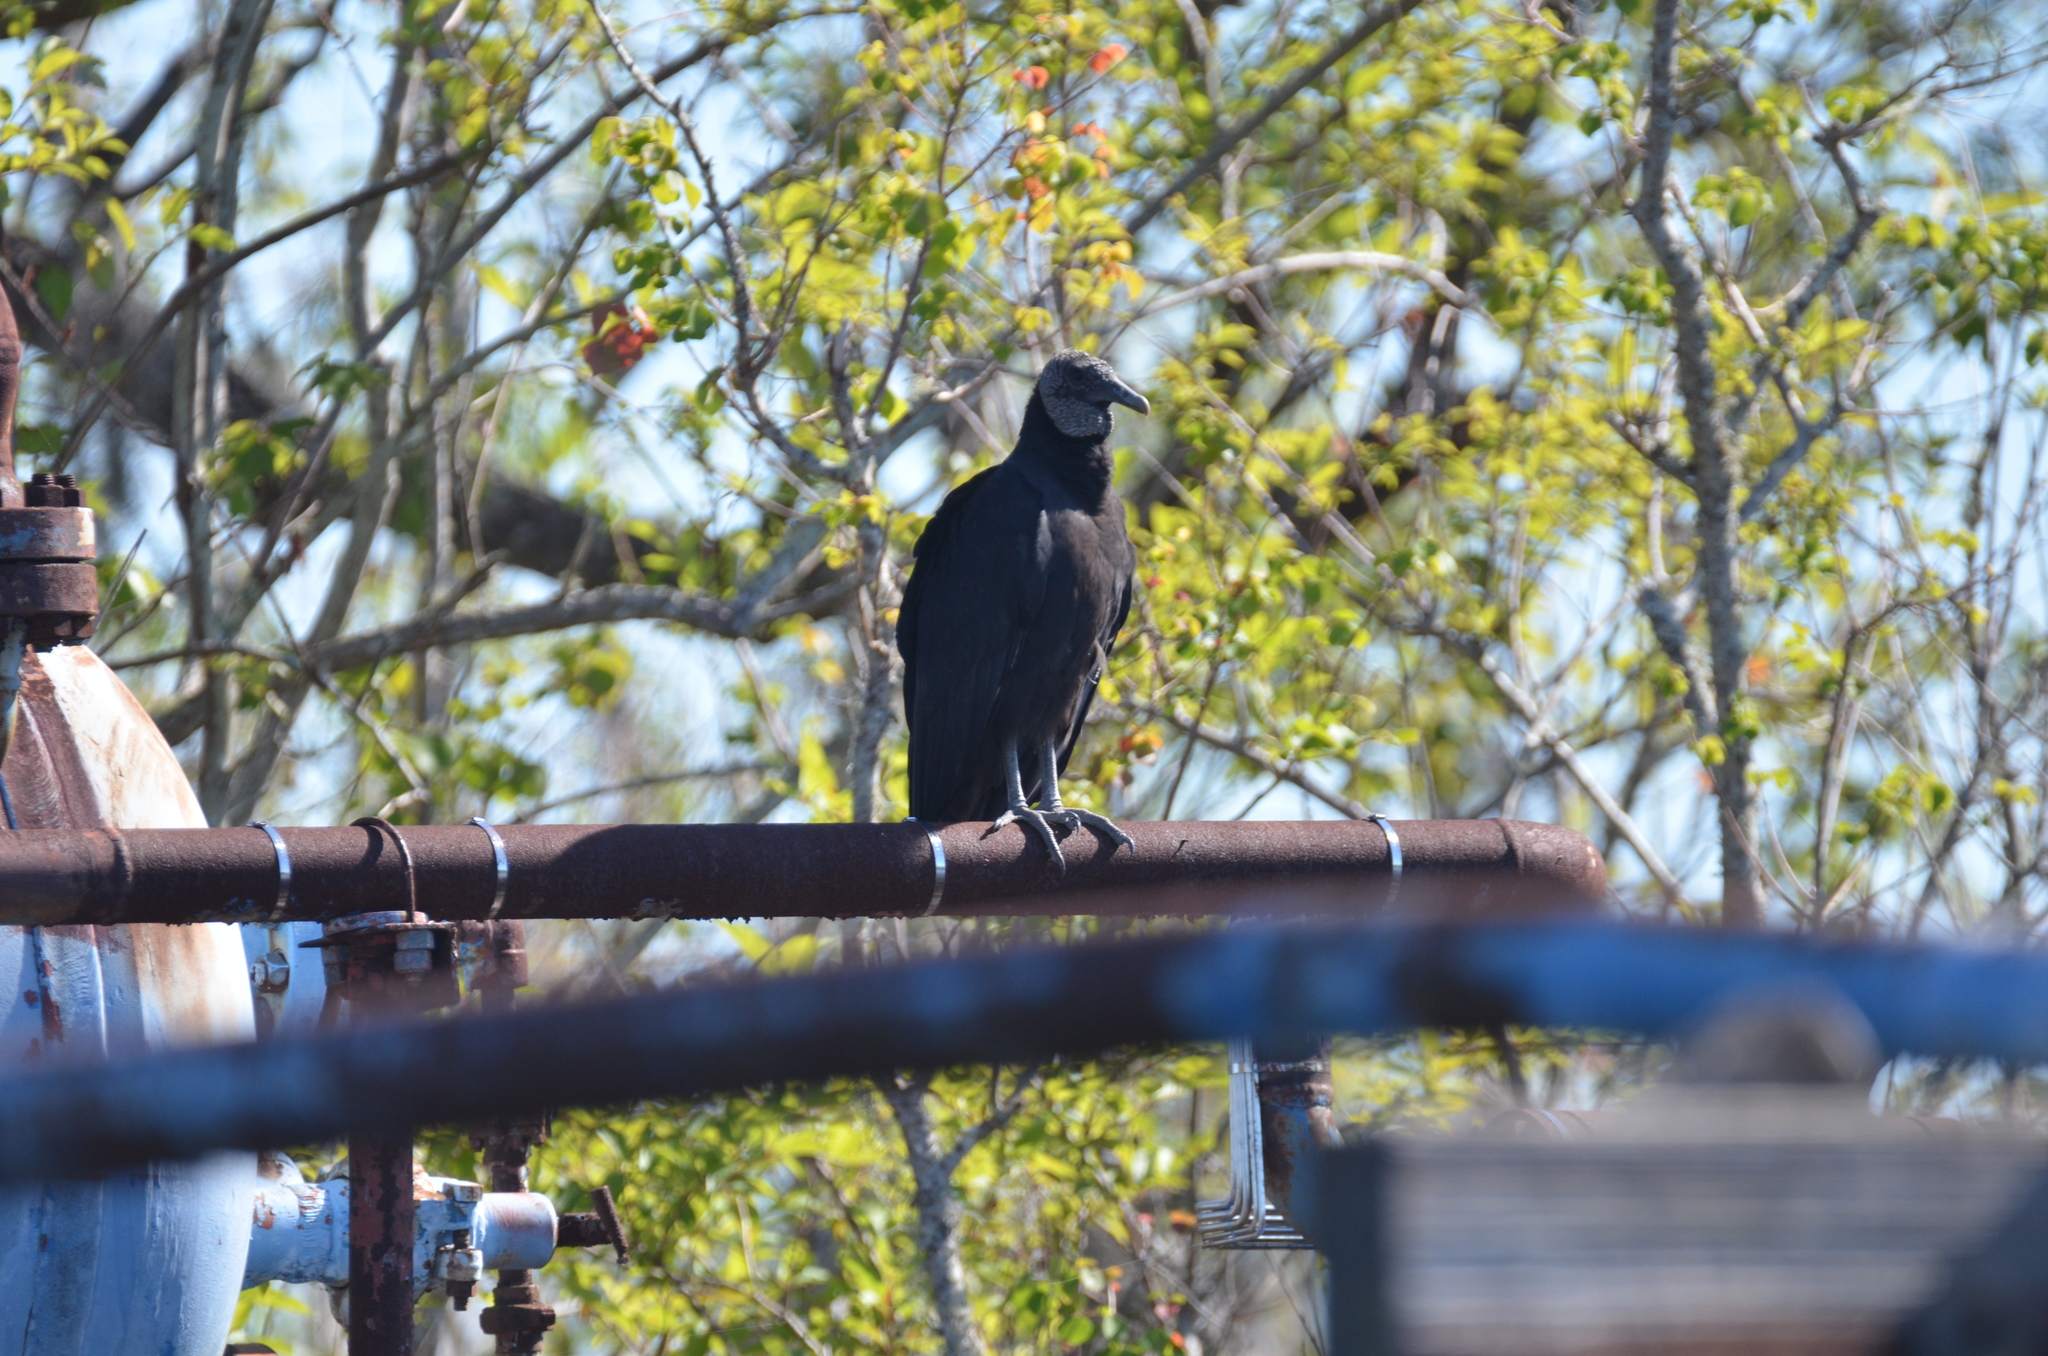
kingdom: Animalia
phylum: Chordata
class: Aves
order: Accipitriformes
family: Cathartidae
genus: Coragyps
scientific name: Coragyps atratus
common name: Black vulture
